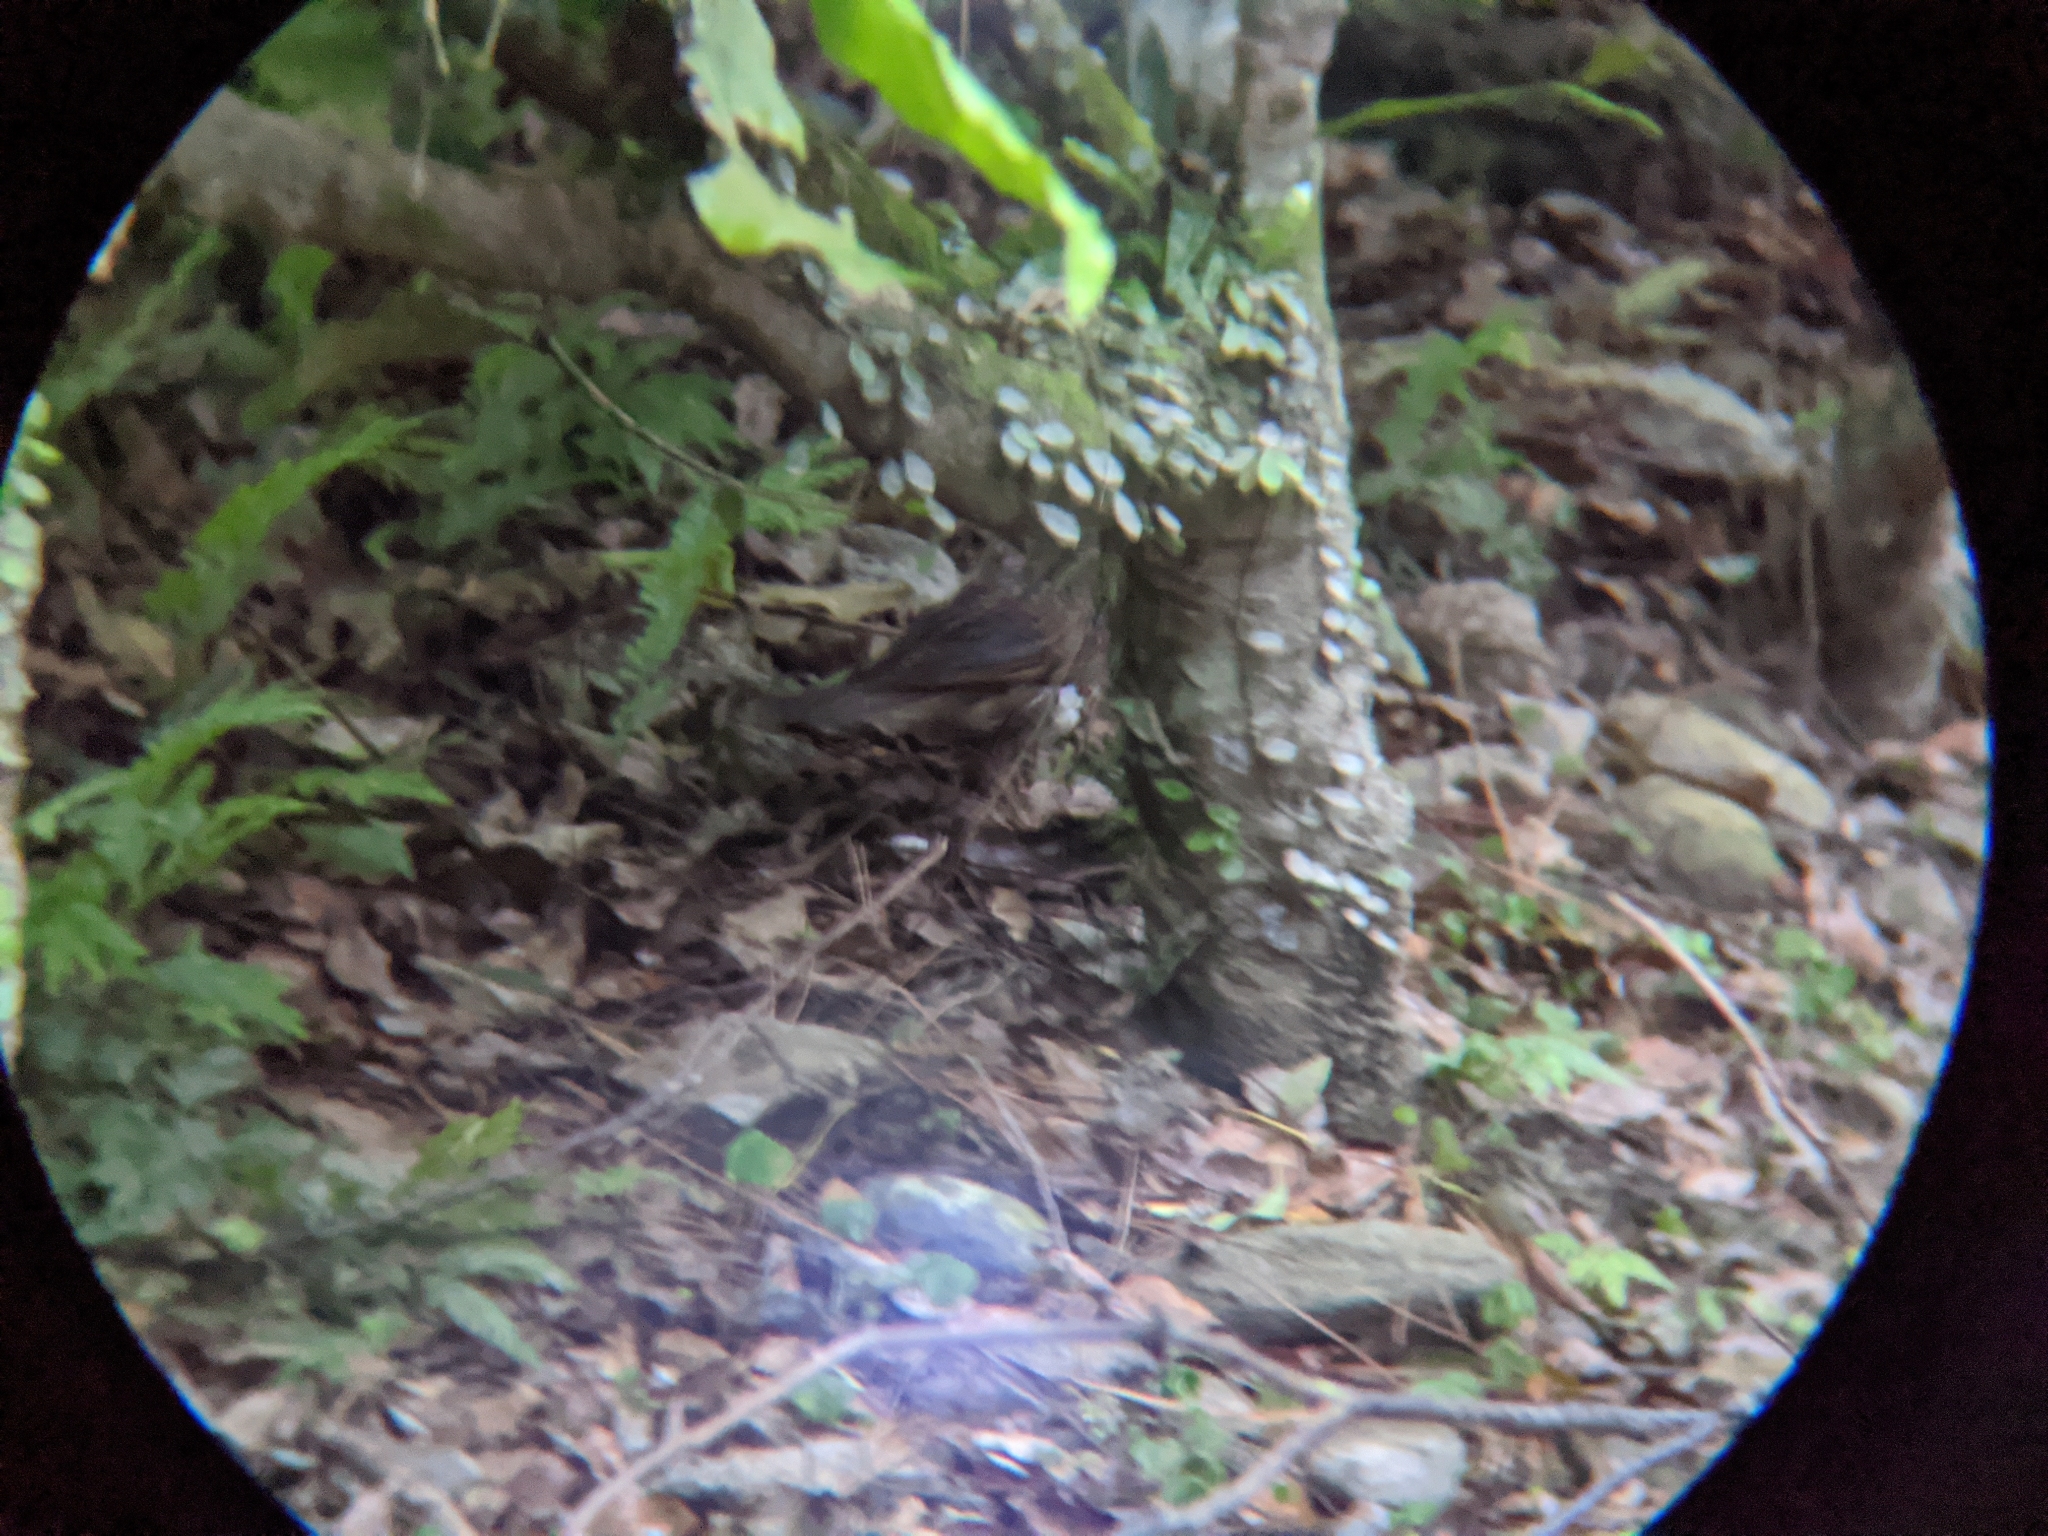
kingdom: Animalia
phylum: Chordata
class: Aves
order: Passeriformes
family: Turdidae
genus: Zoothera
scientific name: Zoothera dauma
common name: Scaly thrush
